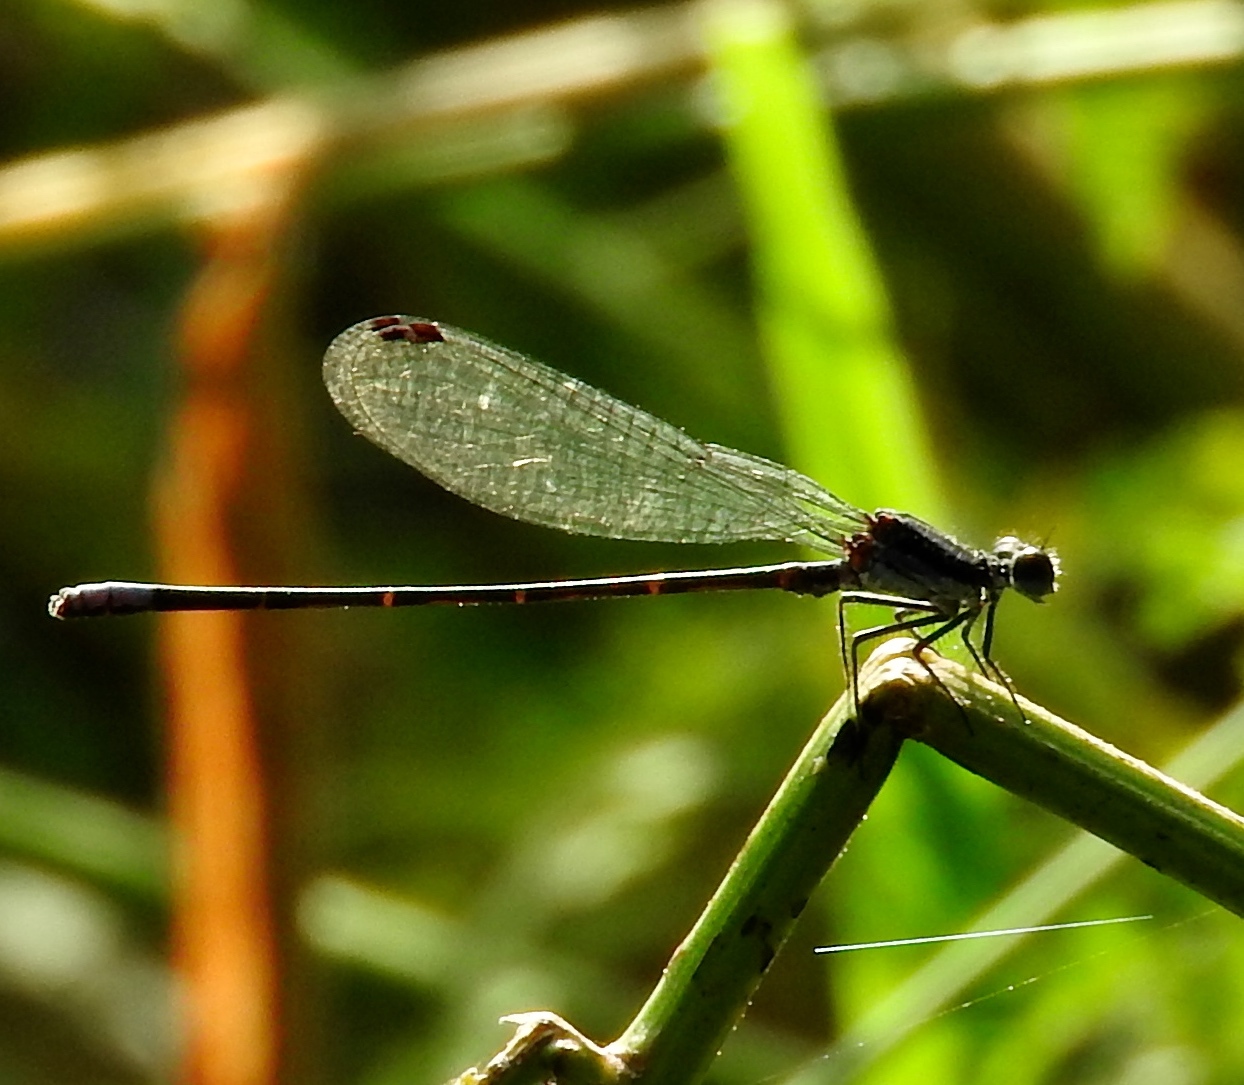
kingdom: Animalia
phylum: Arthropoda
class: Insecta
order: Odonata
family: Coenagrionidae
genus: Argia
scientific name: Argia
